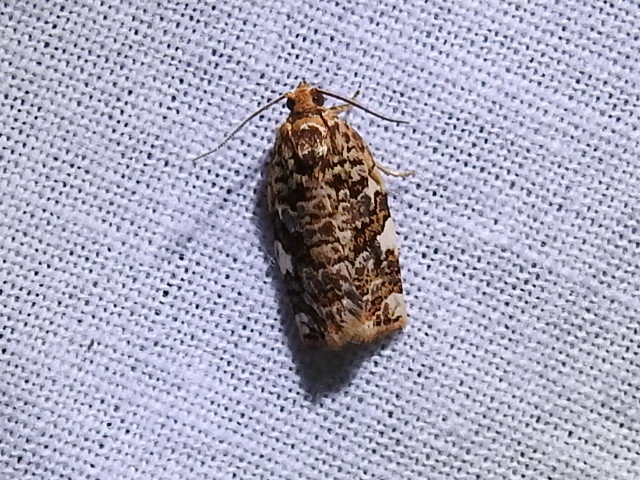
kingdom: Animalia
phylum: Arthropoda
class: Insecta
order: Lepidoptera
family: Tortricidae
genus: Archips
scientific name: Archips argyrospila
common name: Fruit-tree leafroller moth
